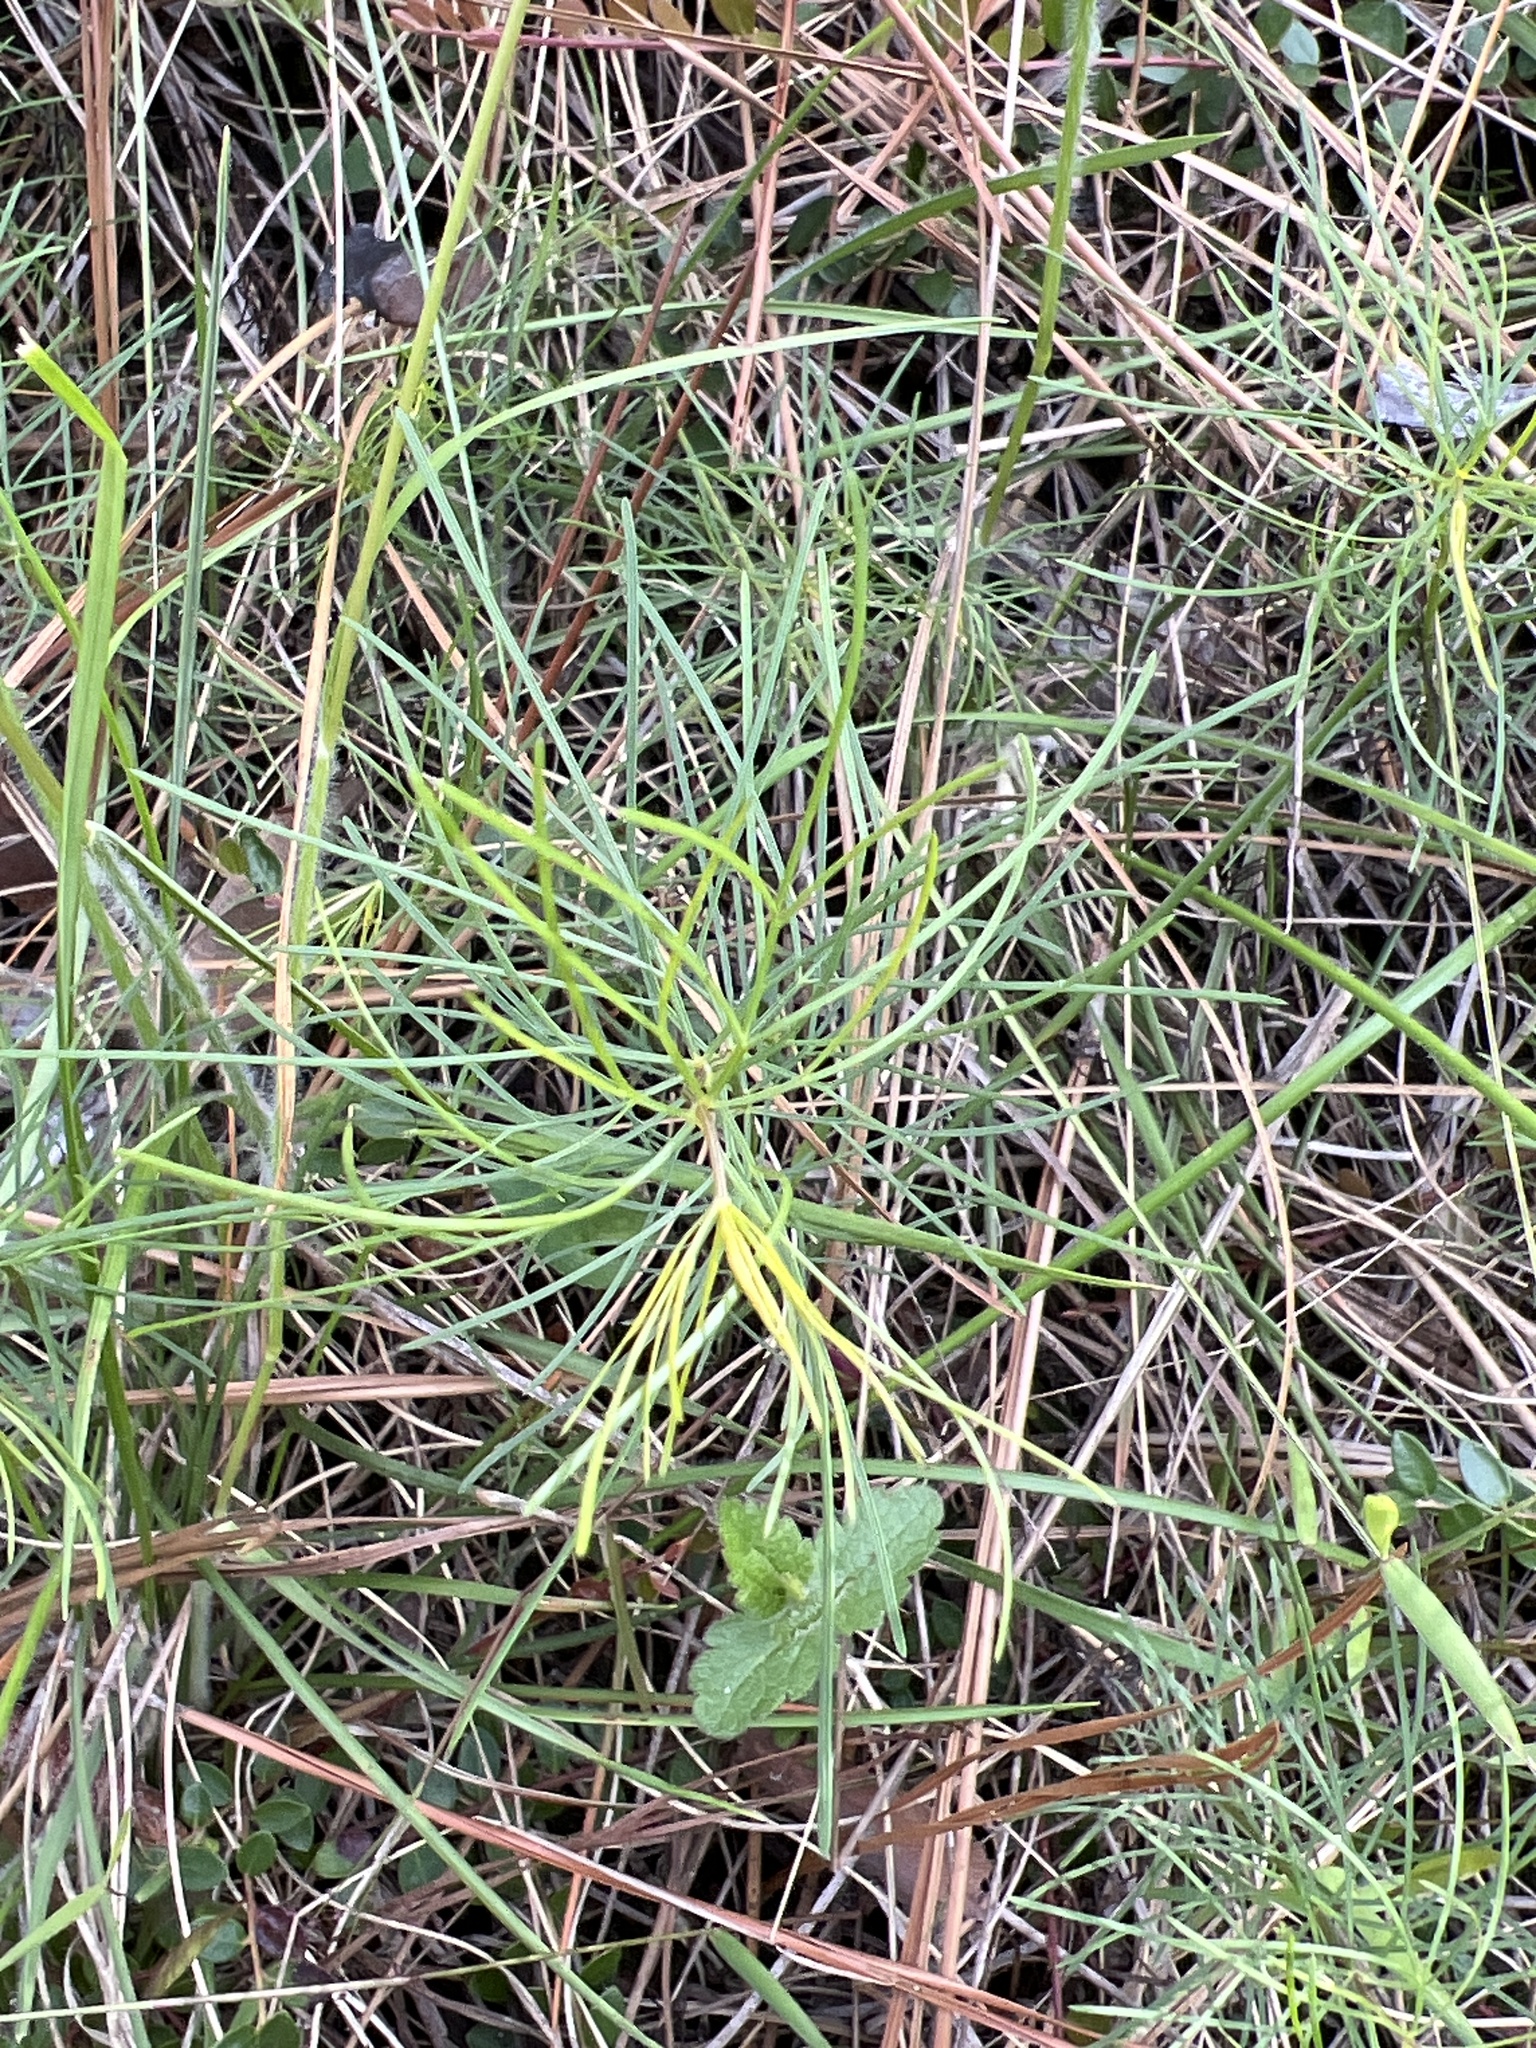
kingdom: Plantae
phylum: Tracheophyta
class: Magnoliopsida
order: Asterales
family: Asteraceae
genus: Coreopsis
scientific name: Coreopsis verticillata
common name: Whorled tickseed
